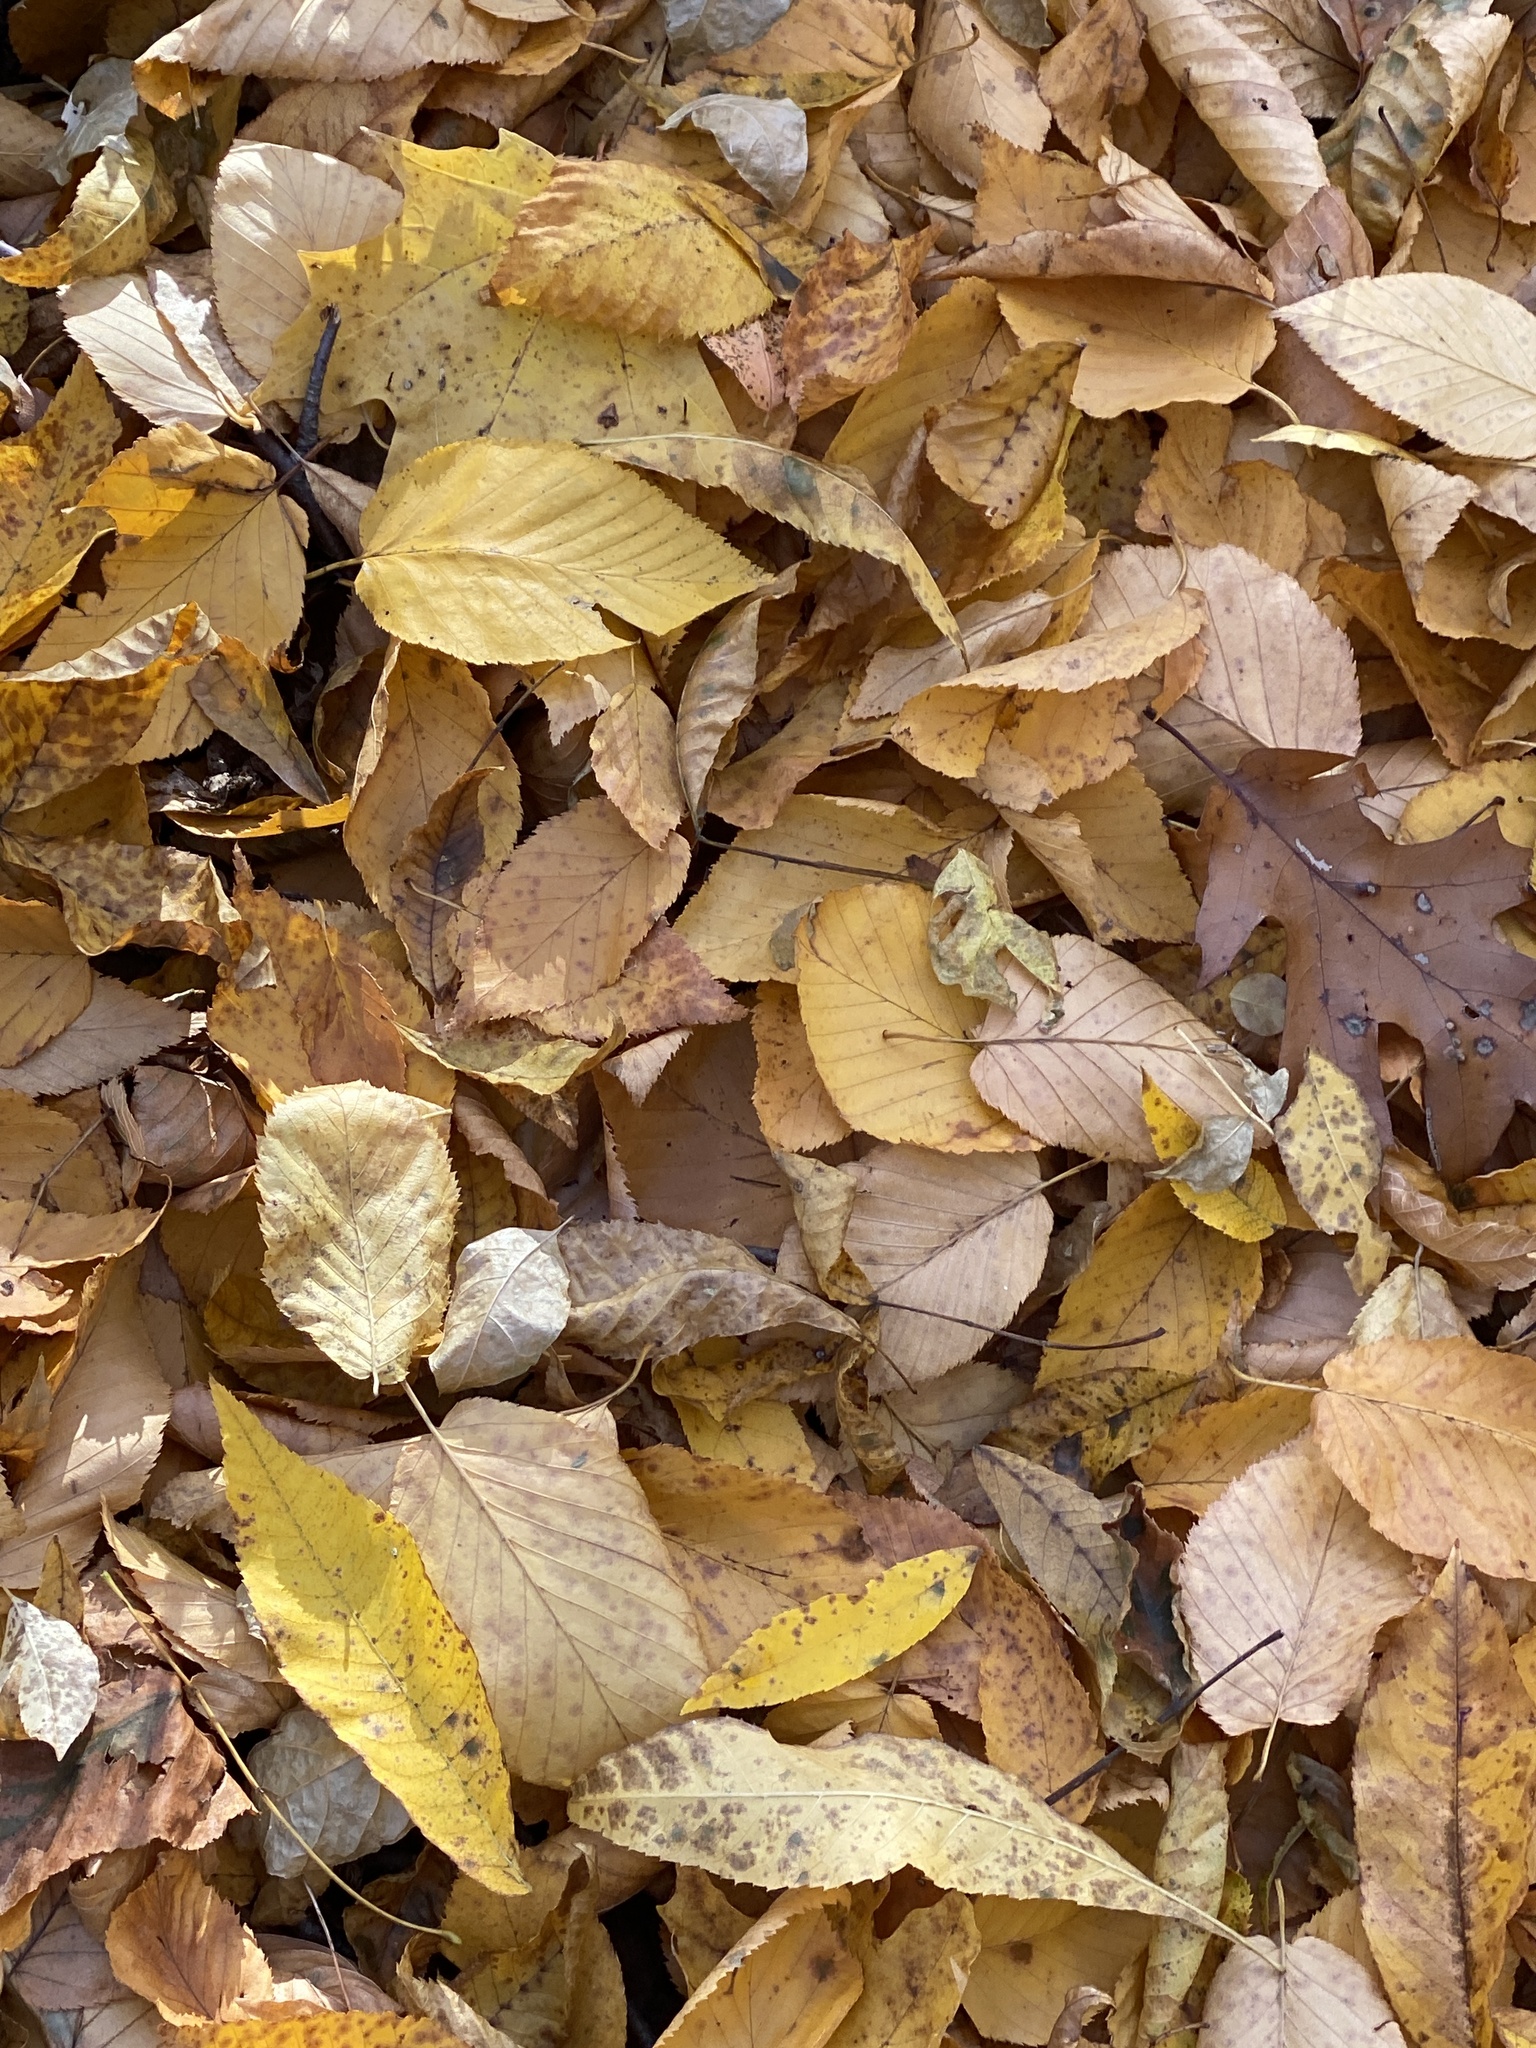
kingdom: Plantae
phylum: Tracheophyta
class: Magnoliopsida
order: Fagales
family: Betulaceae
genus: Betula
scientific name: Betula lenta
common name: Black birch
